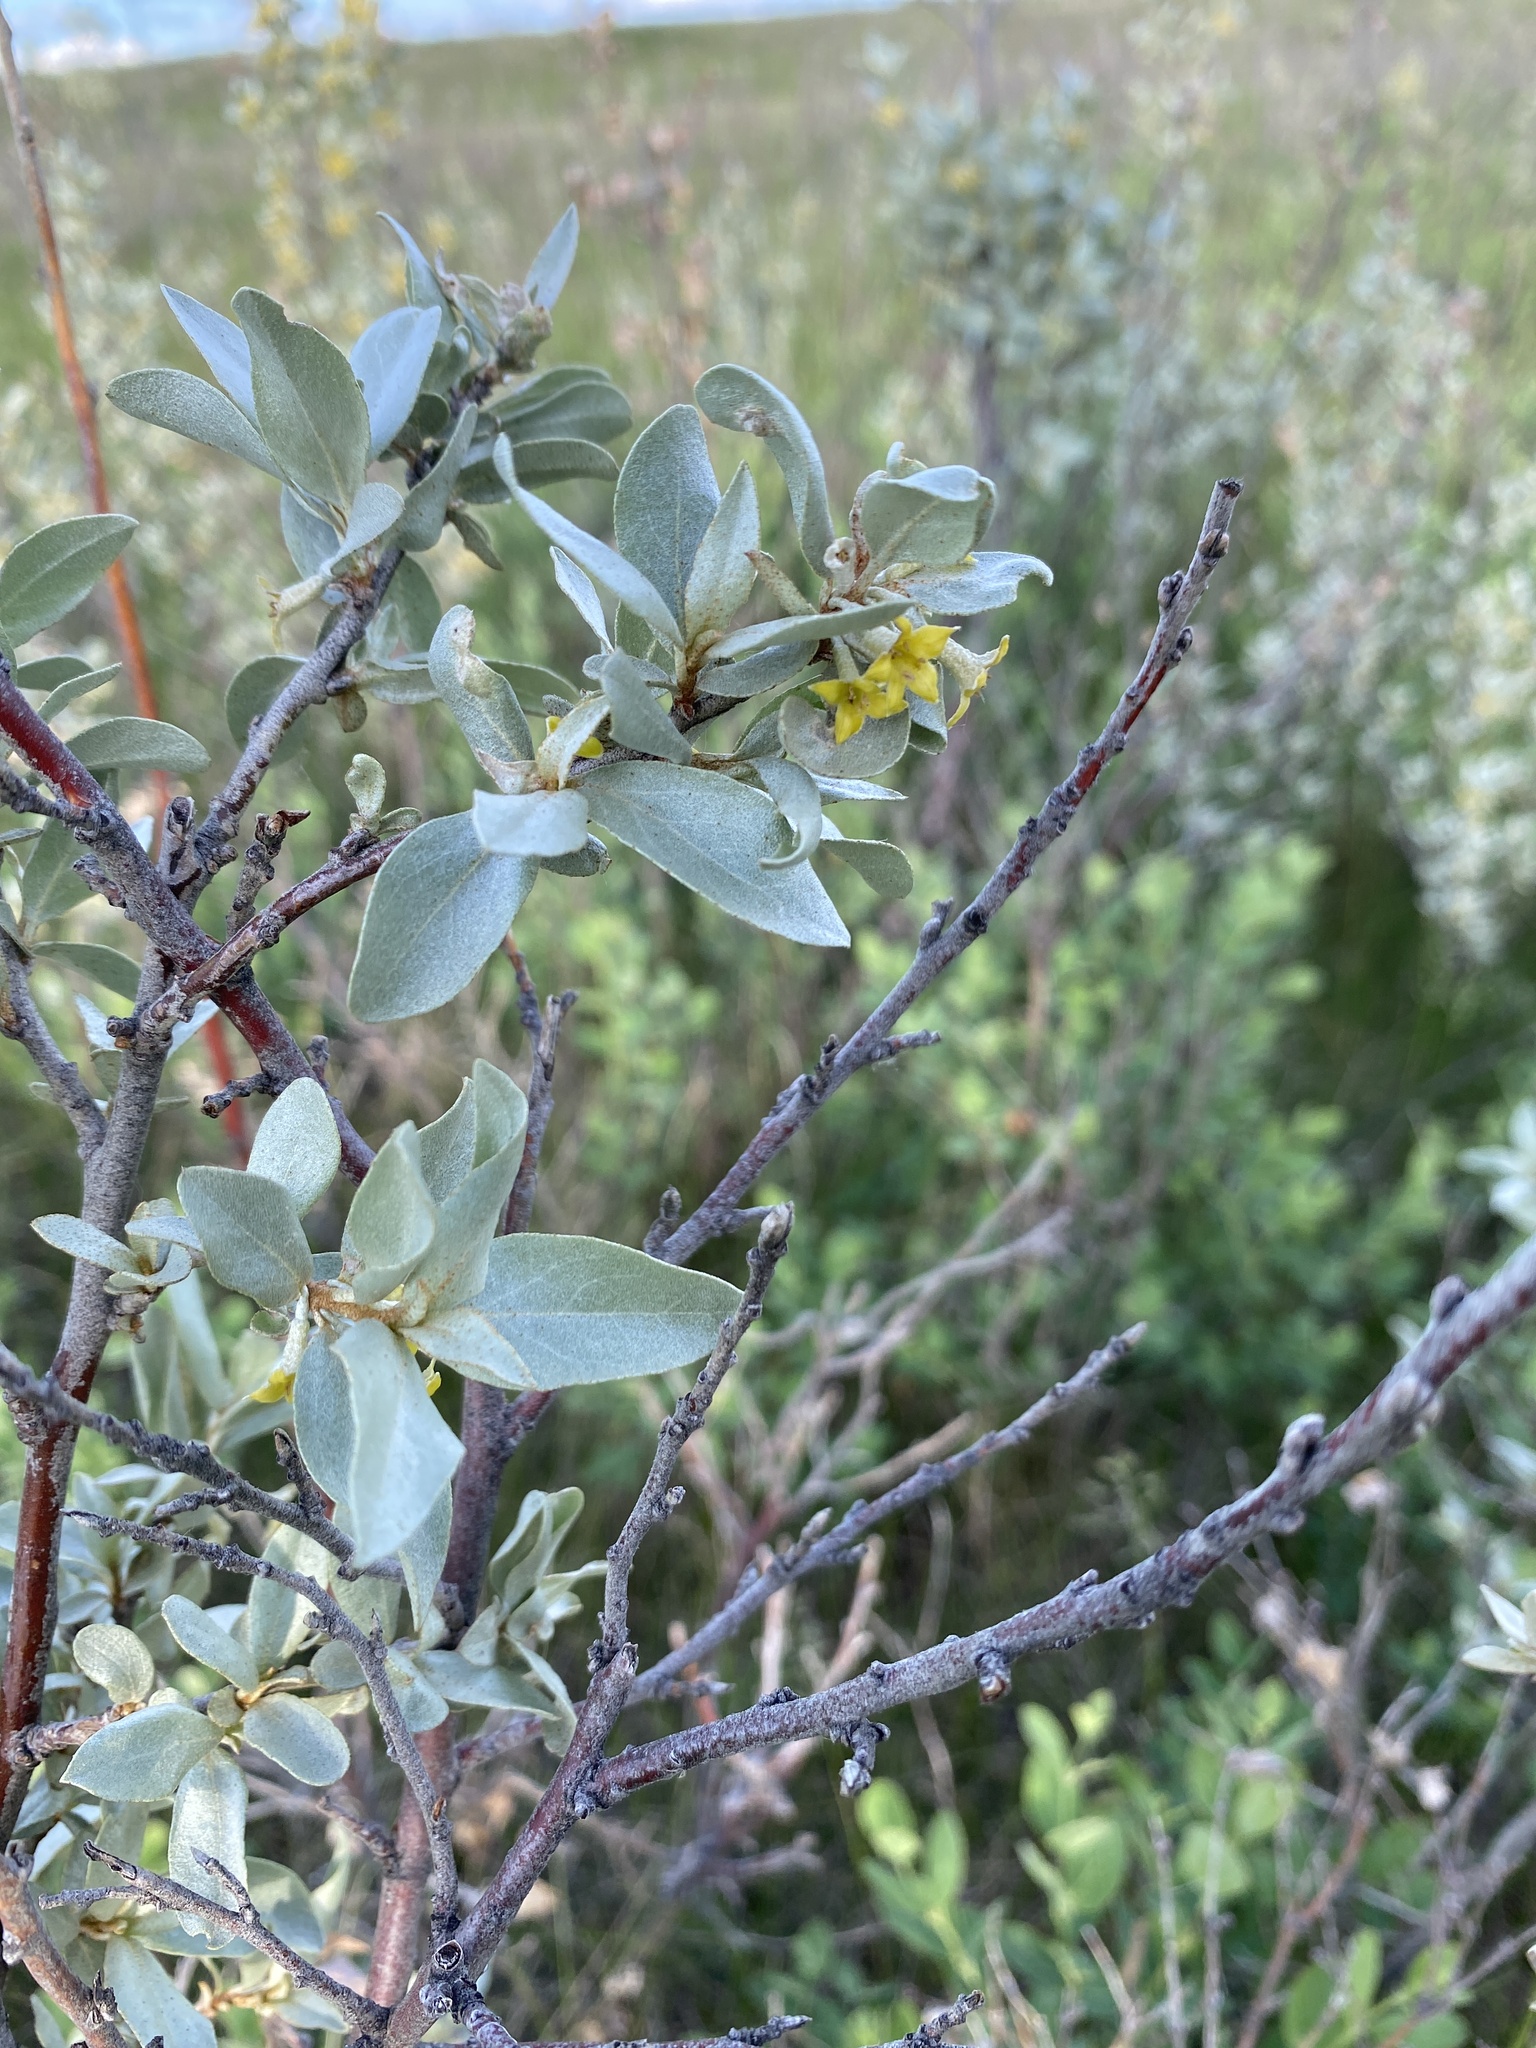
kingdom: Plantae
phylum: Tracheophyta
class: Magnoliopsida
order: Rosales
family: Elaeagnaceae
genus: Elaeagnus
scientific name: Elaeagnus commutata
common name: Silverberry
